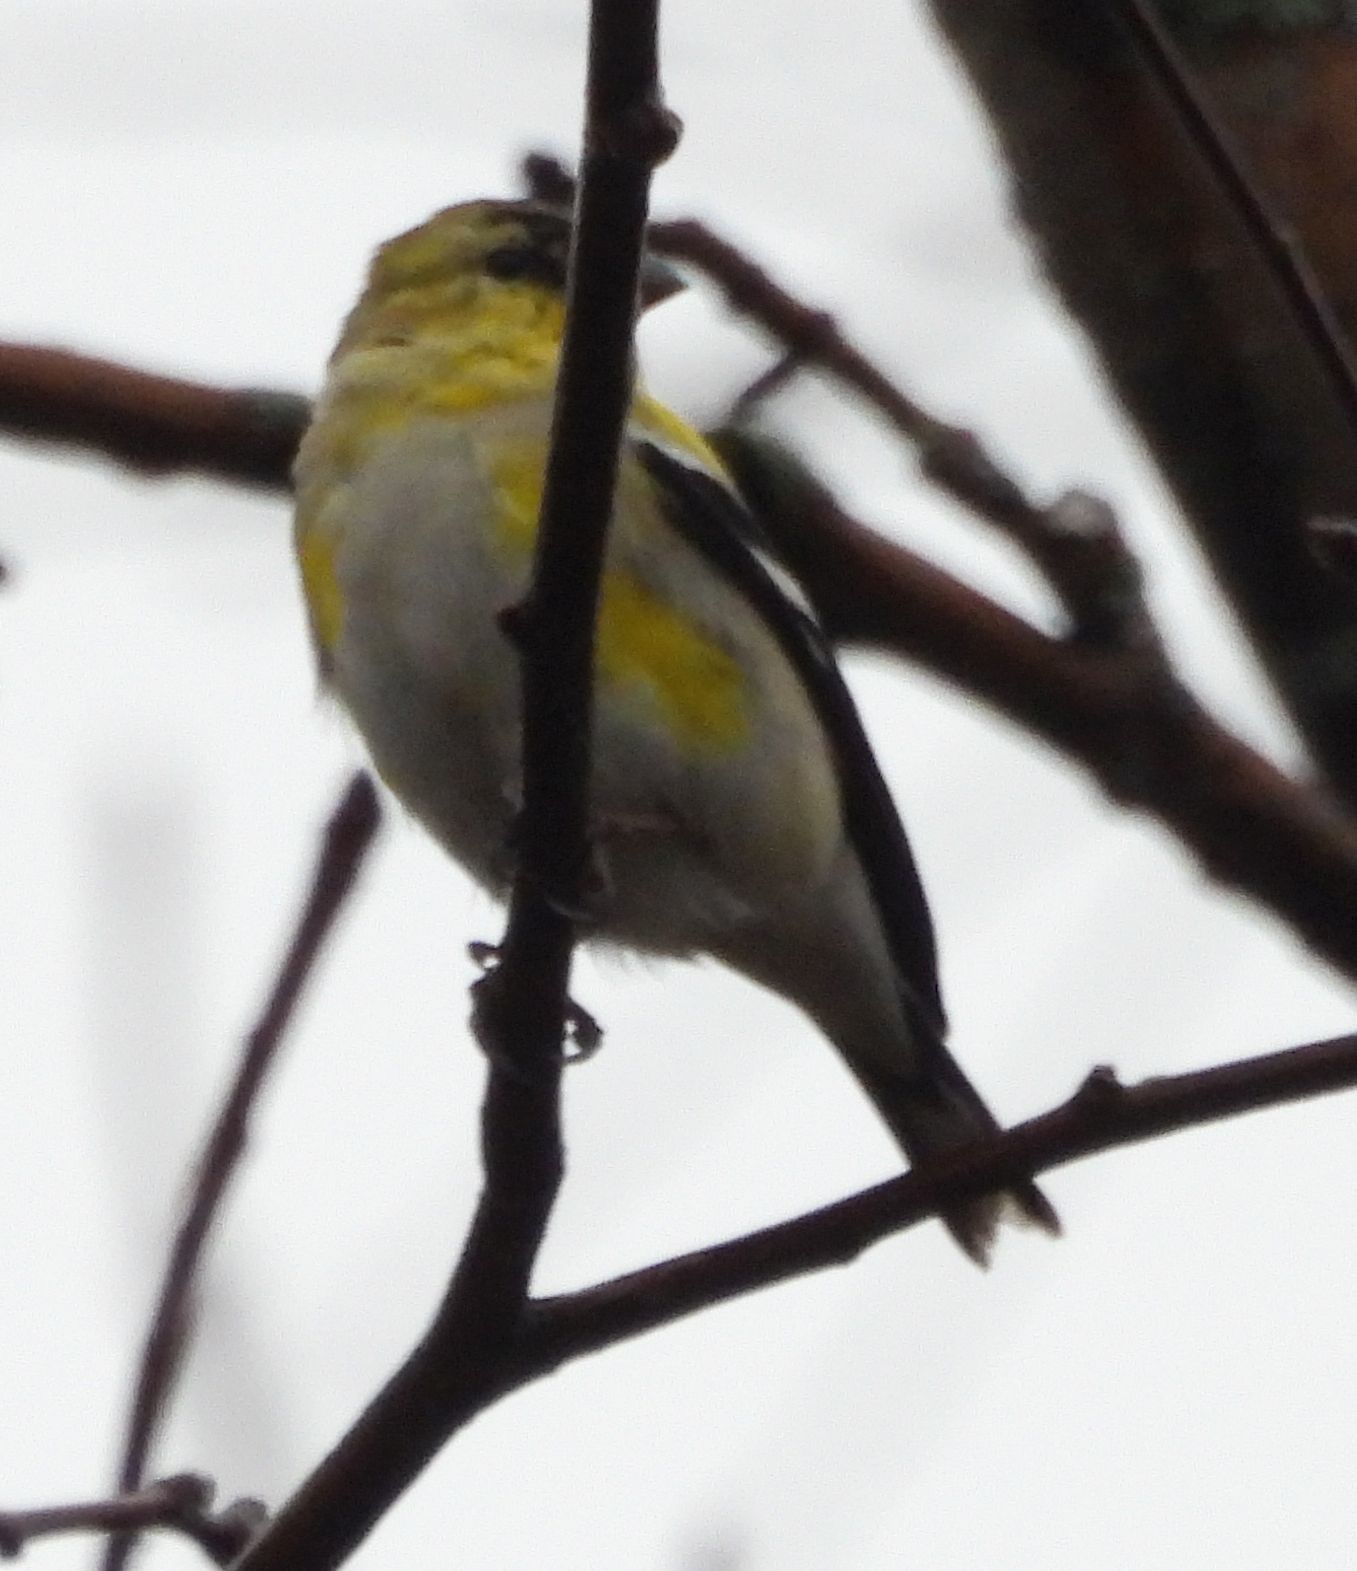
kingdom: Animalia
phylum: Chordata
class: Aves
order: Passeriformes
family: Fringillidae
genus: Spinus
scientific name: Spinus tristis
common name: American goldfinch
